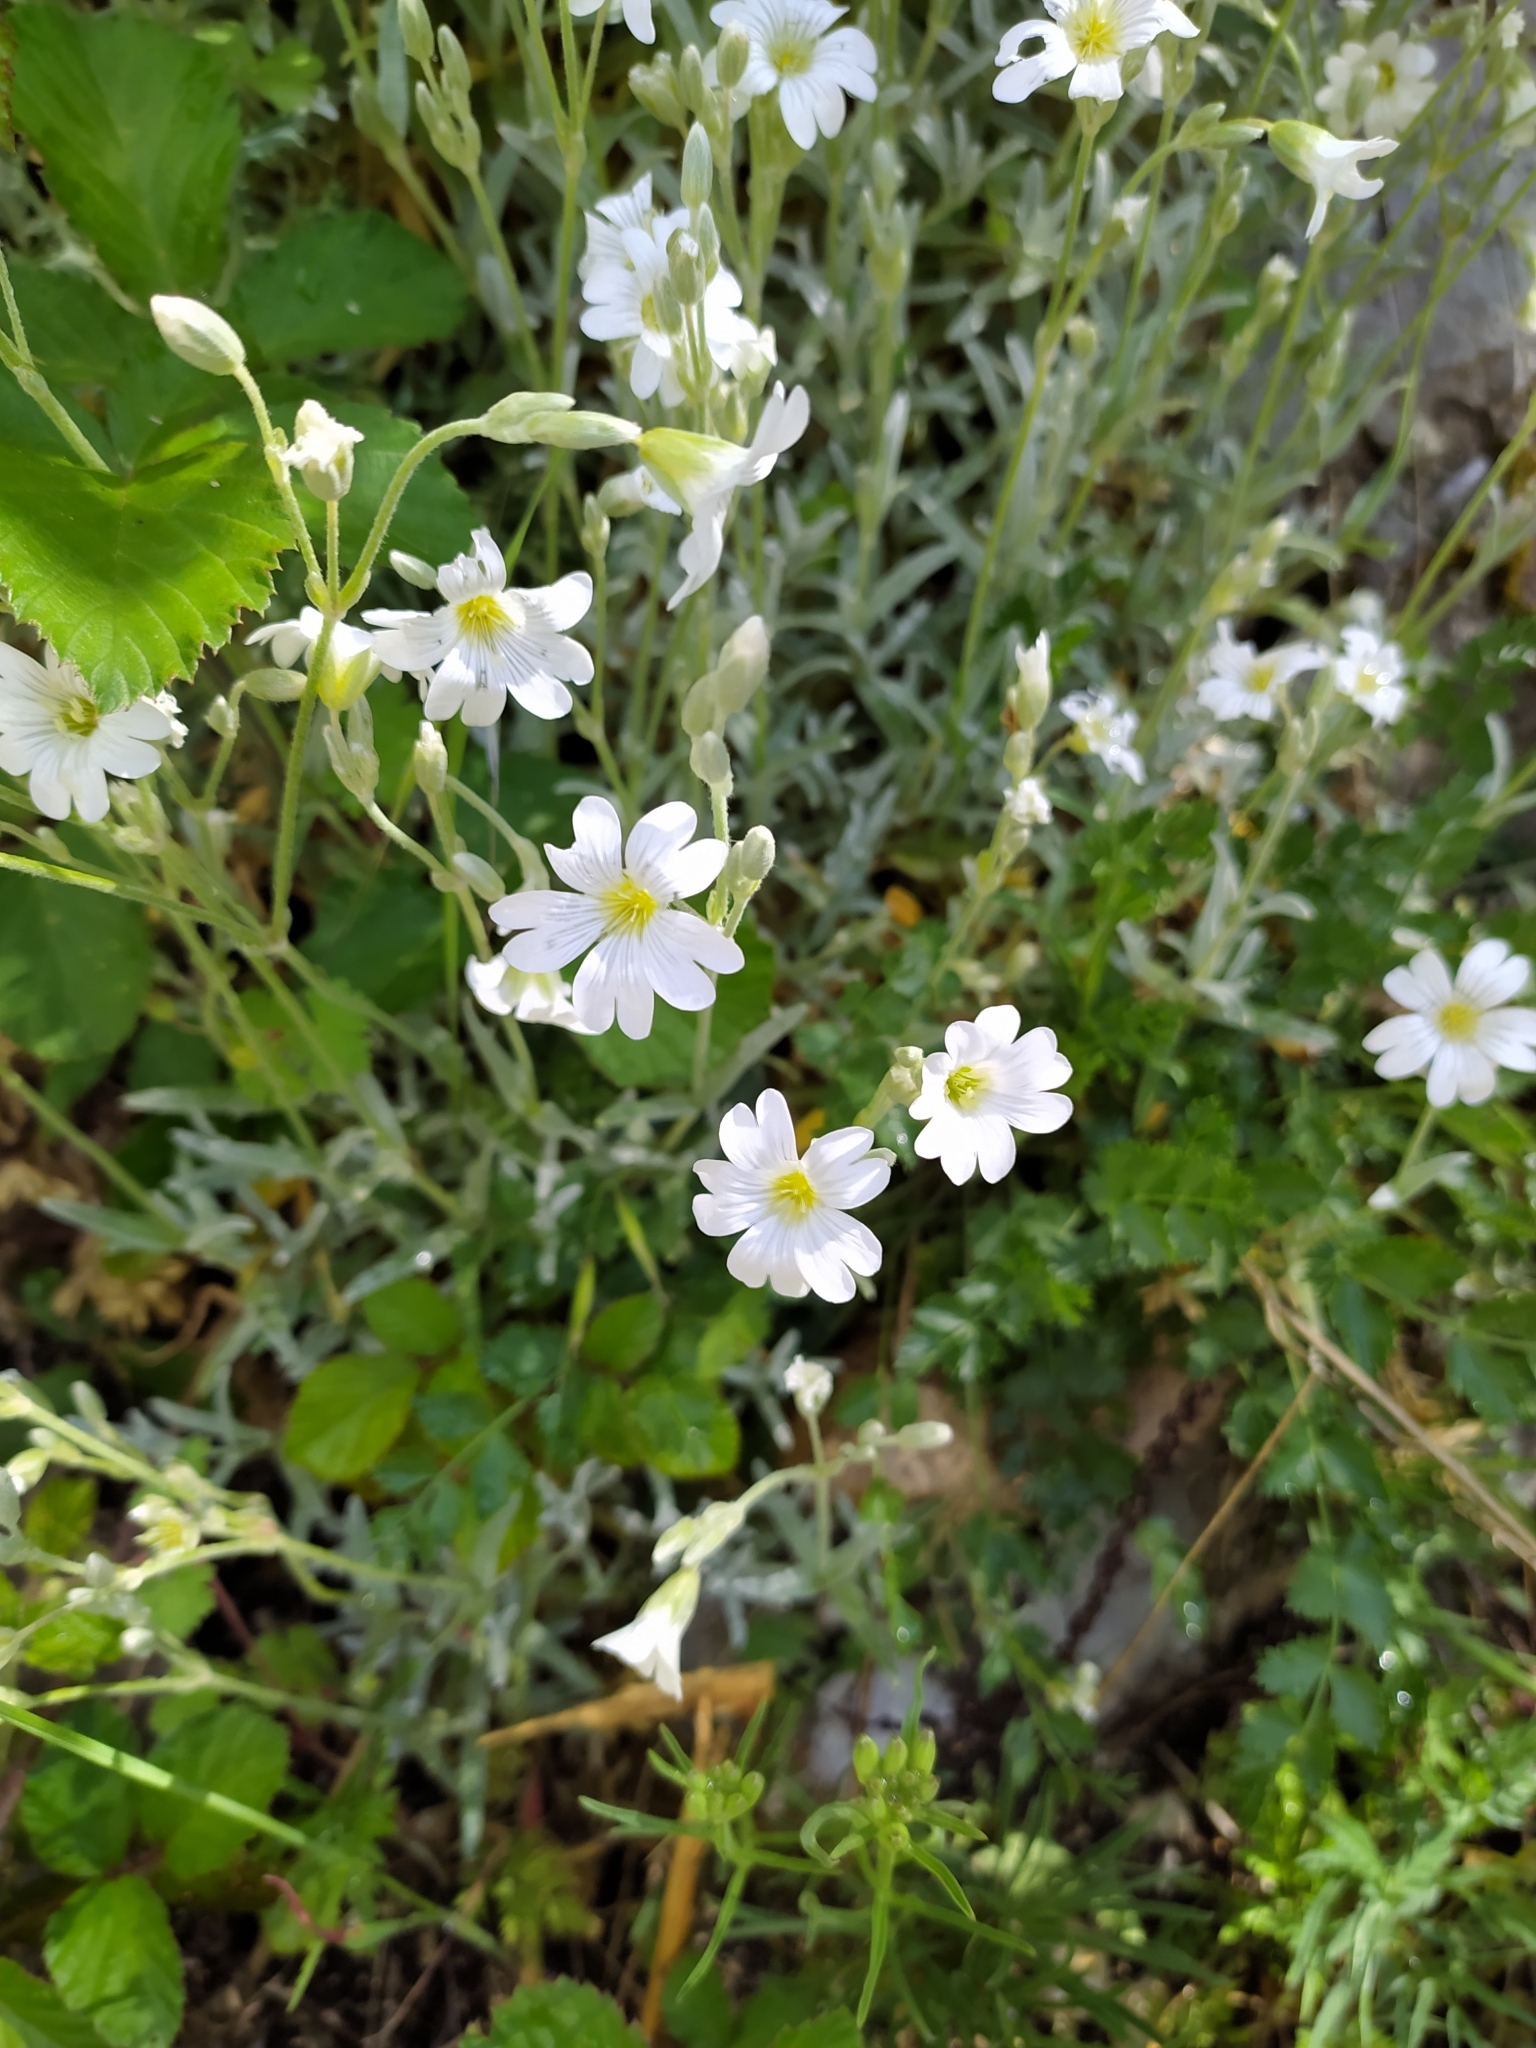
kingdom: Plantae
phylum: Tracheophyta
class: Magnoliopsida
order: Caryophyllales
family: Caryophyllaceae
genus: Cerastium
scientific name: Cerastium tomentosum
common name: Snow-in-summer
